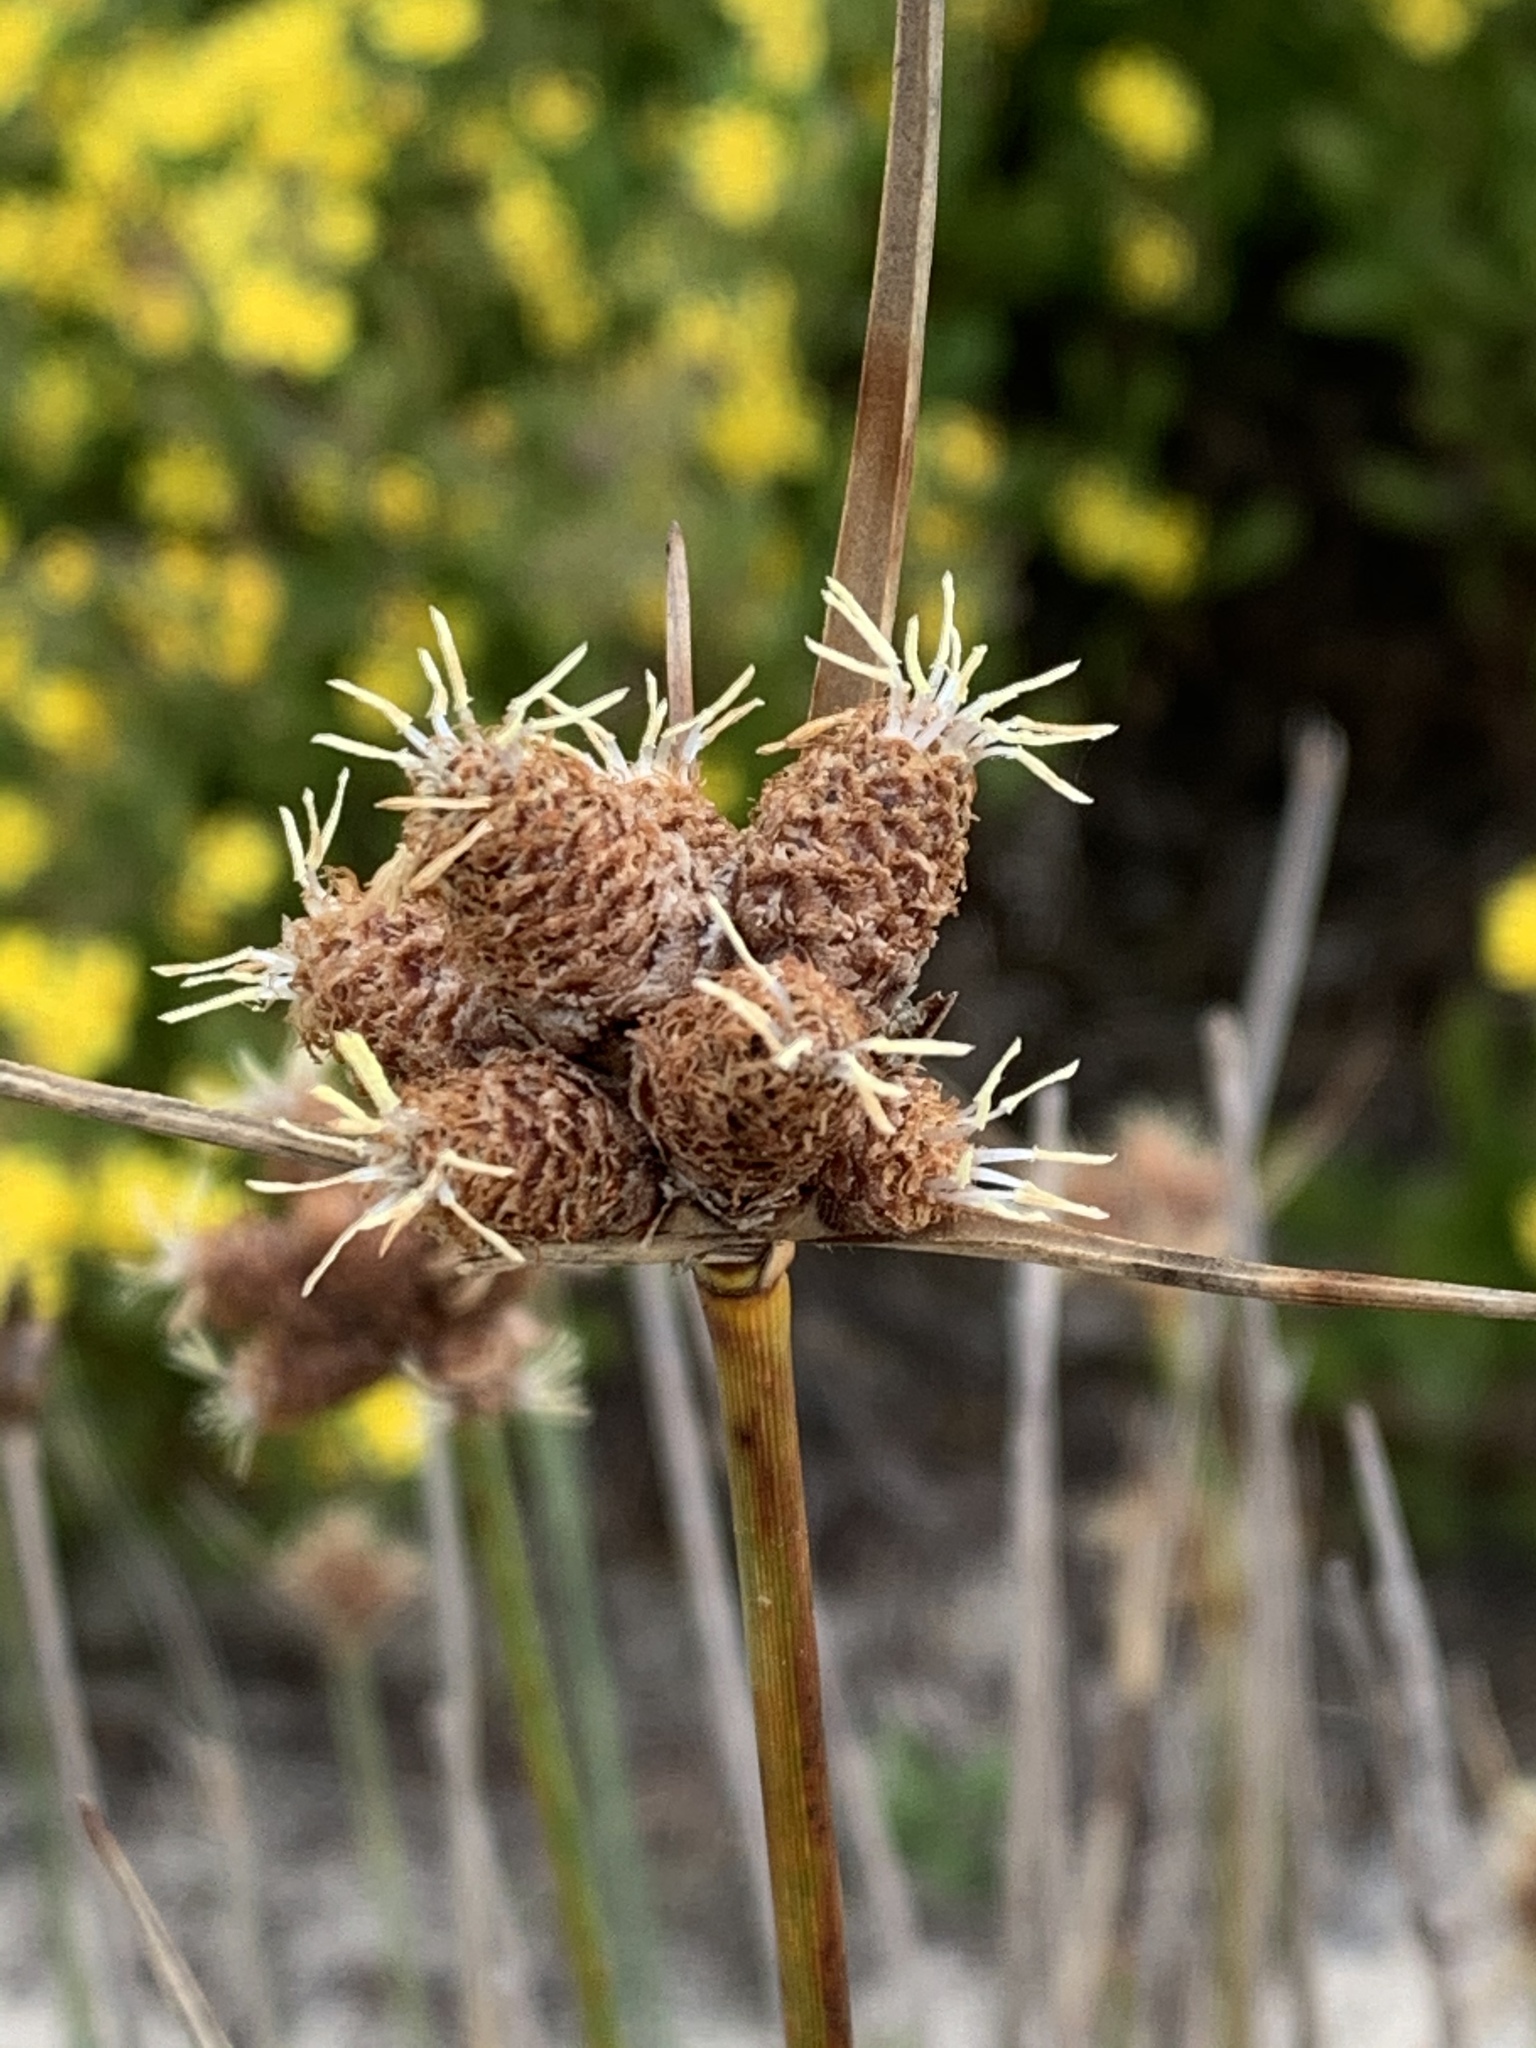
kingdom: Plantae
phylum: Tracheophyta
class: Liliopsida
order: Poales
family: Cyperaceae
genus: Hellmuthia
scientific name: Hellmuthia membranacea
